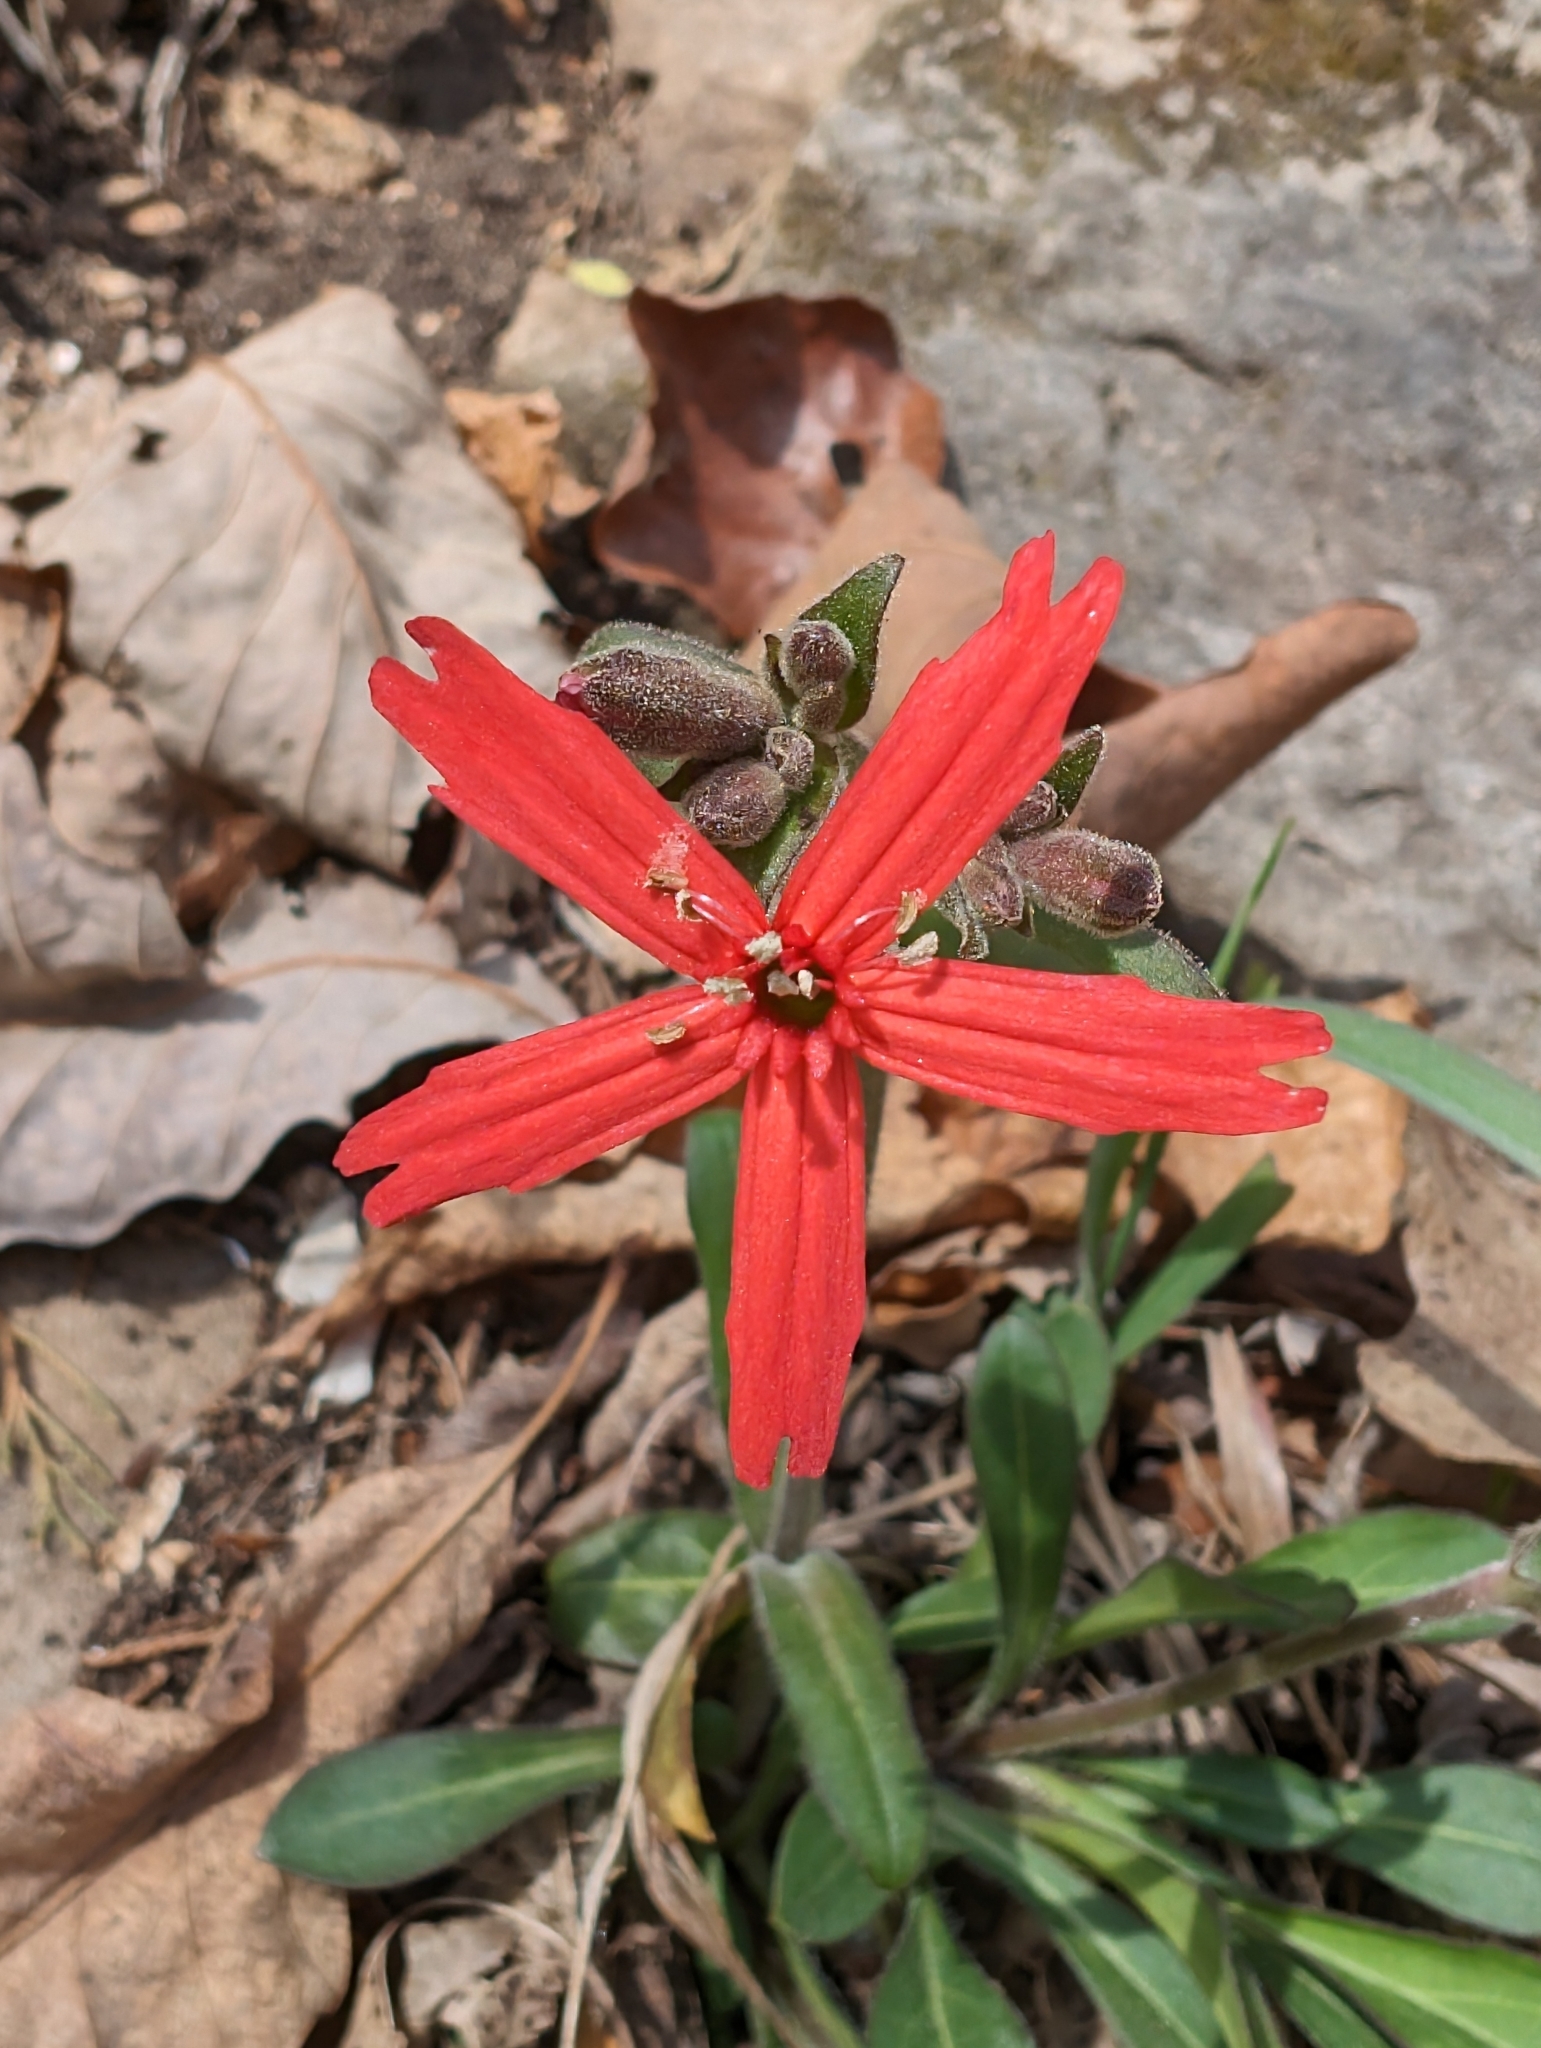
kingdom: Plantae
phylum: Tracheophyta
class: Magnoliopsida
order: Caryophyllales
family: Caryophyllaceae
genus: Silene
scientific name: Silene virginica
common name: Fire-pink
